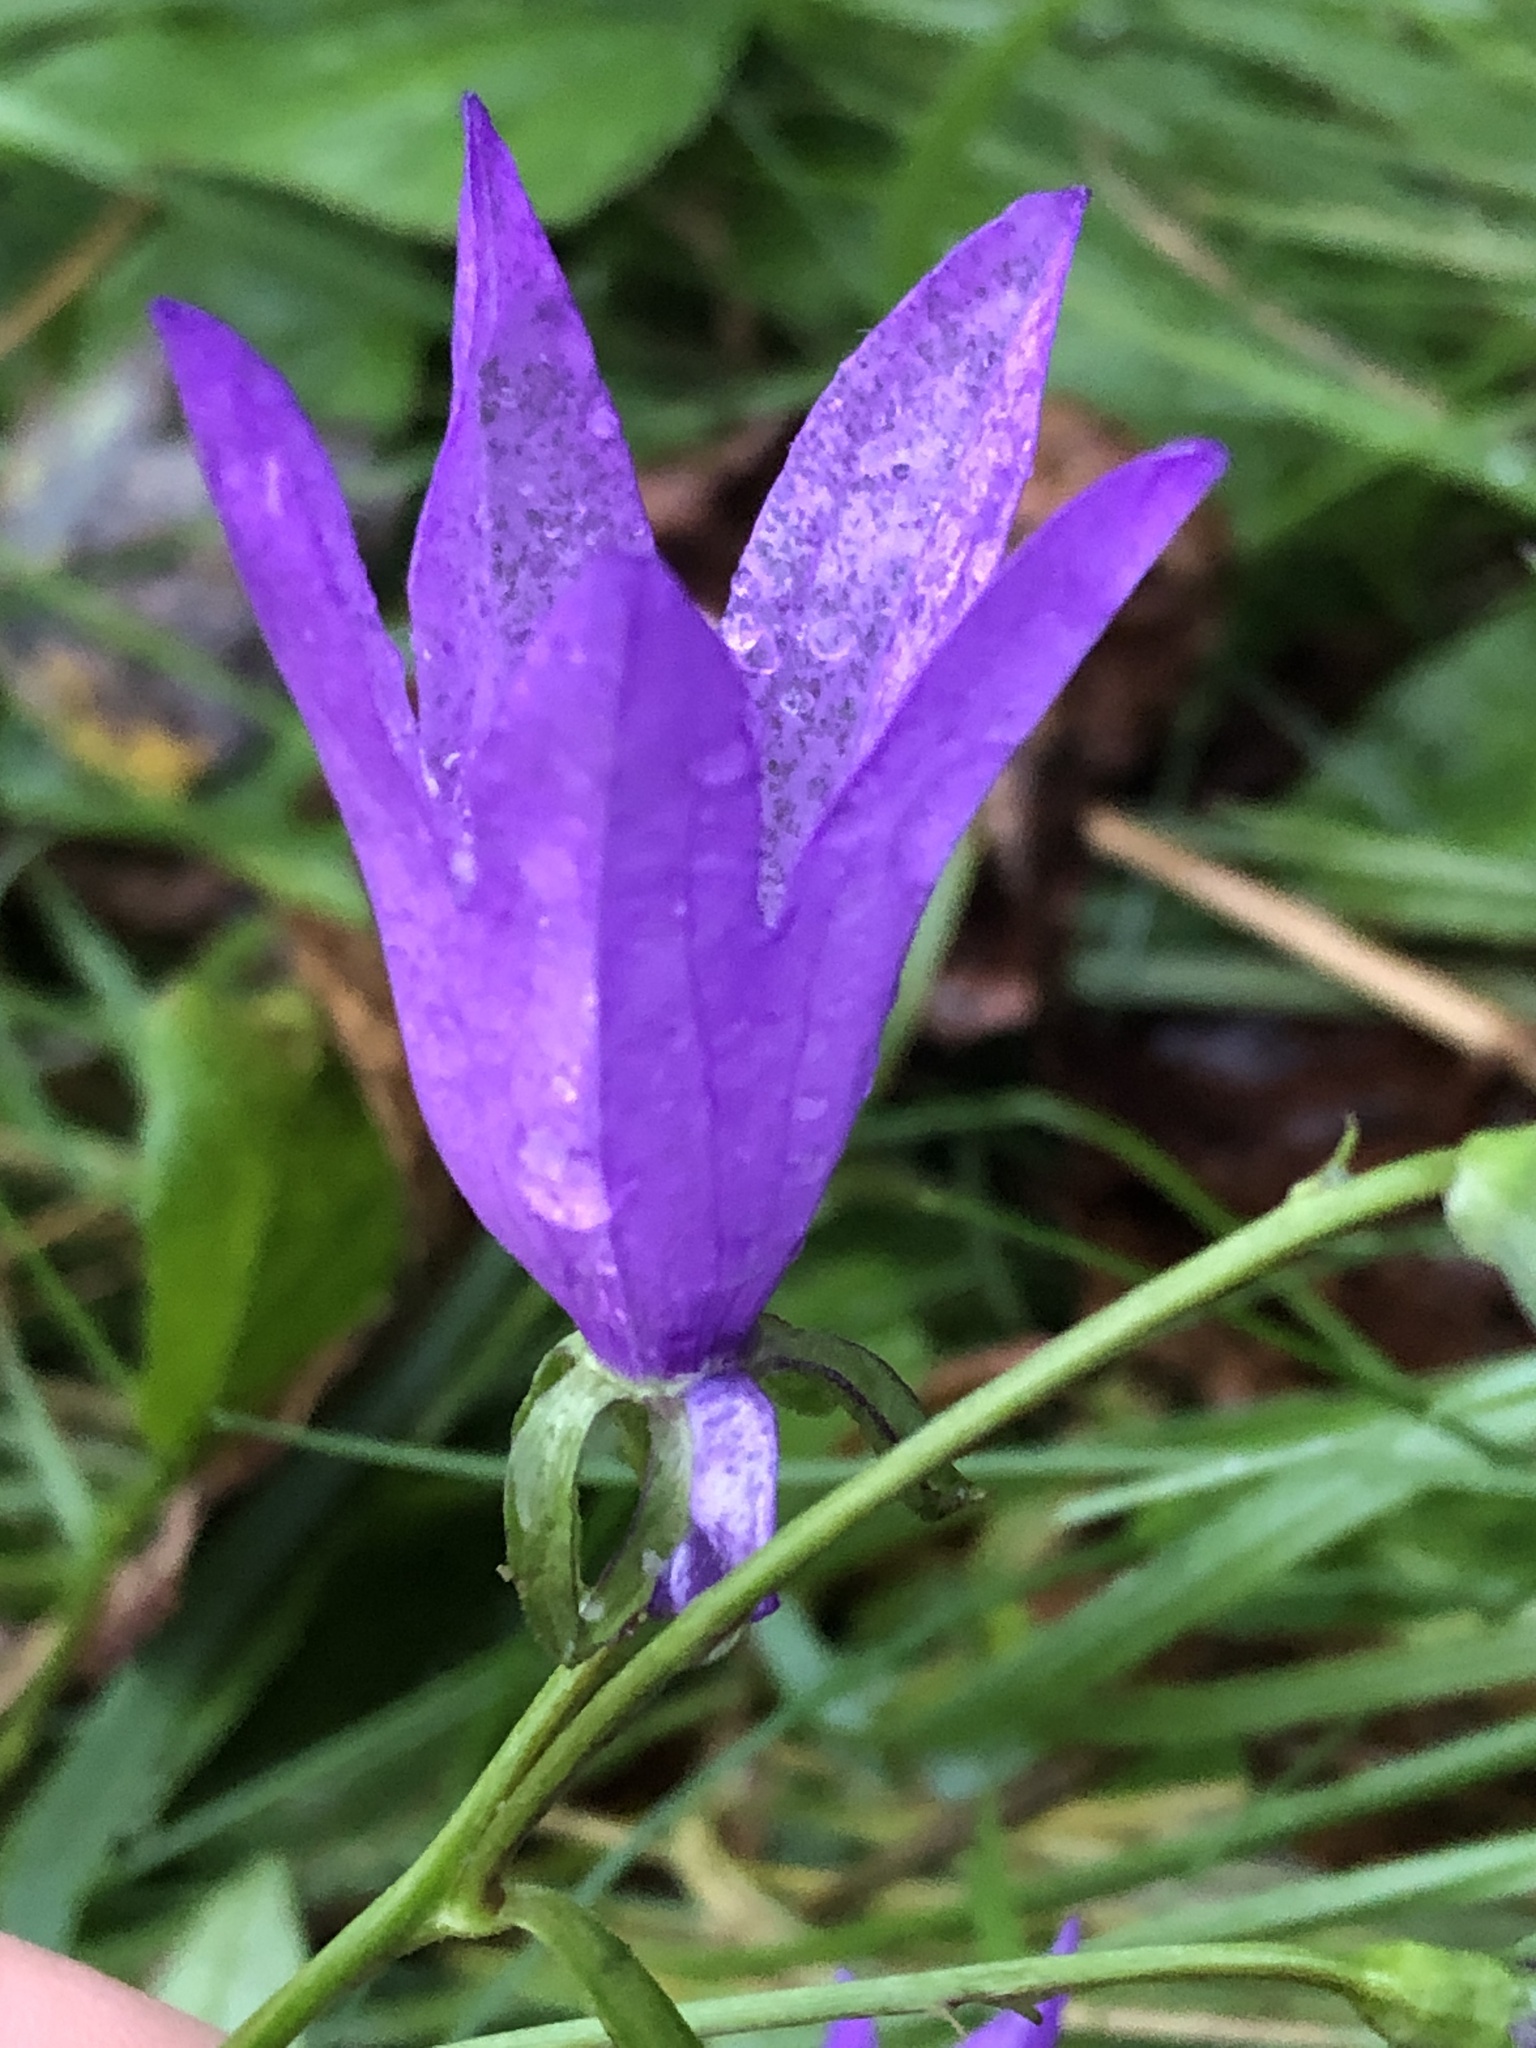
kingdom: Plantae
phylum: Tracheophyta
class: Magnoliopsida
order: Asterales
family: Campanulaceae
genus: Campanula
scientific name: Campanula rapunculoides
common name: Creeping bellflower
